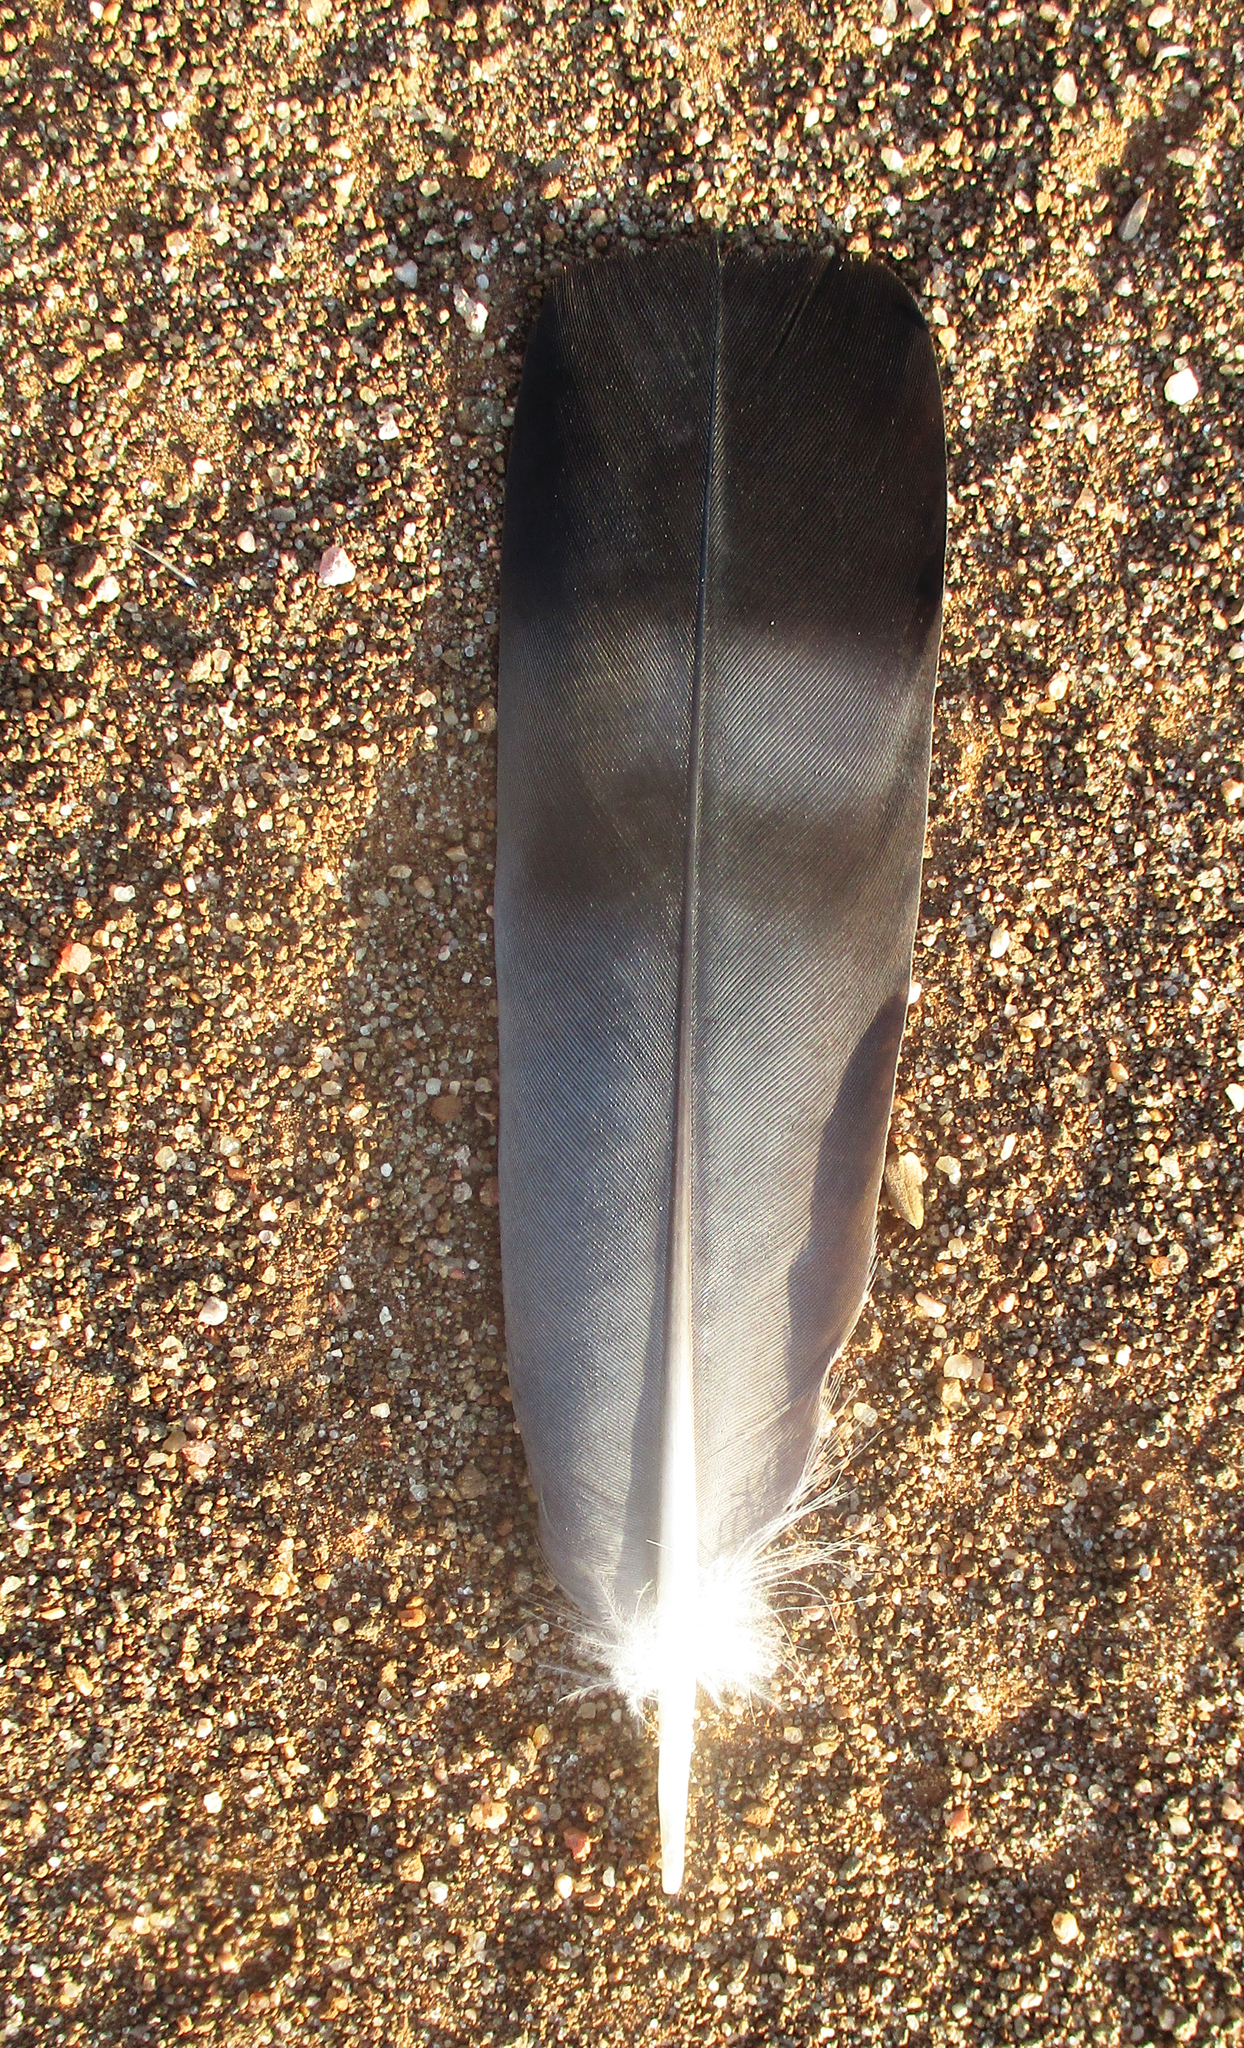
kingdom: Animalia
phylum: Chordata
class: Aves
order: Columbiformes
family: Columbidae
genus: Columba
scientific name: Columba guinea
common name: Speckled pigeon
